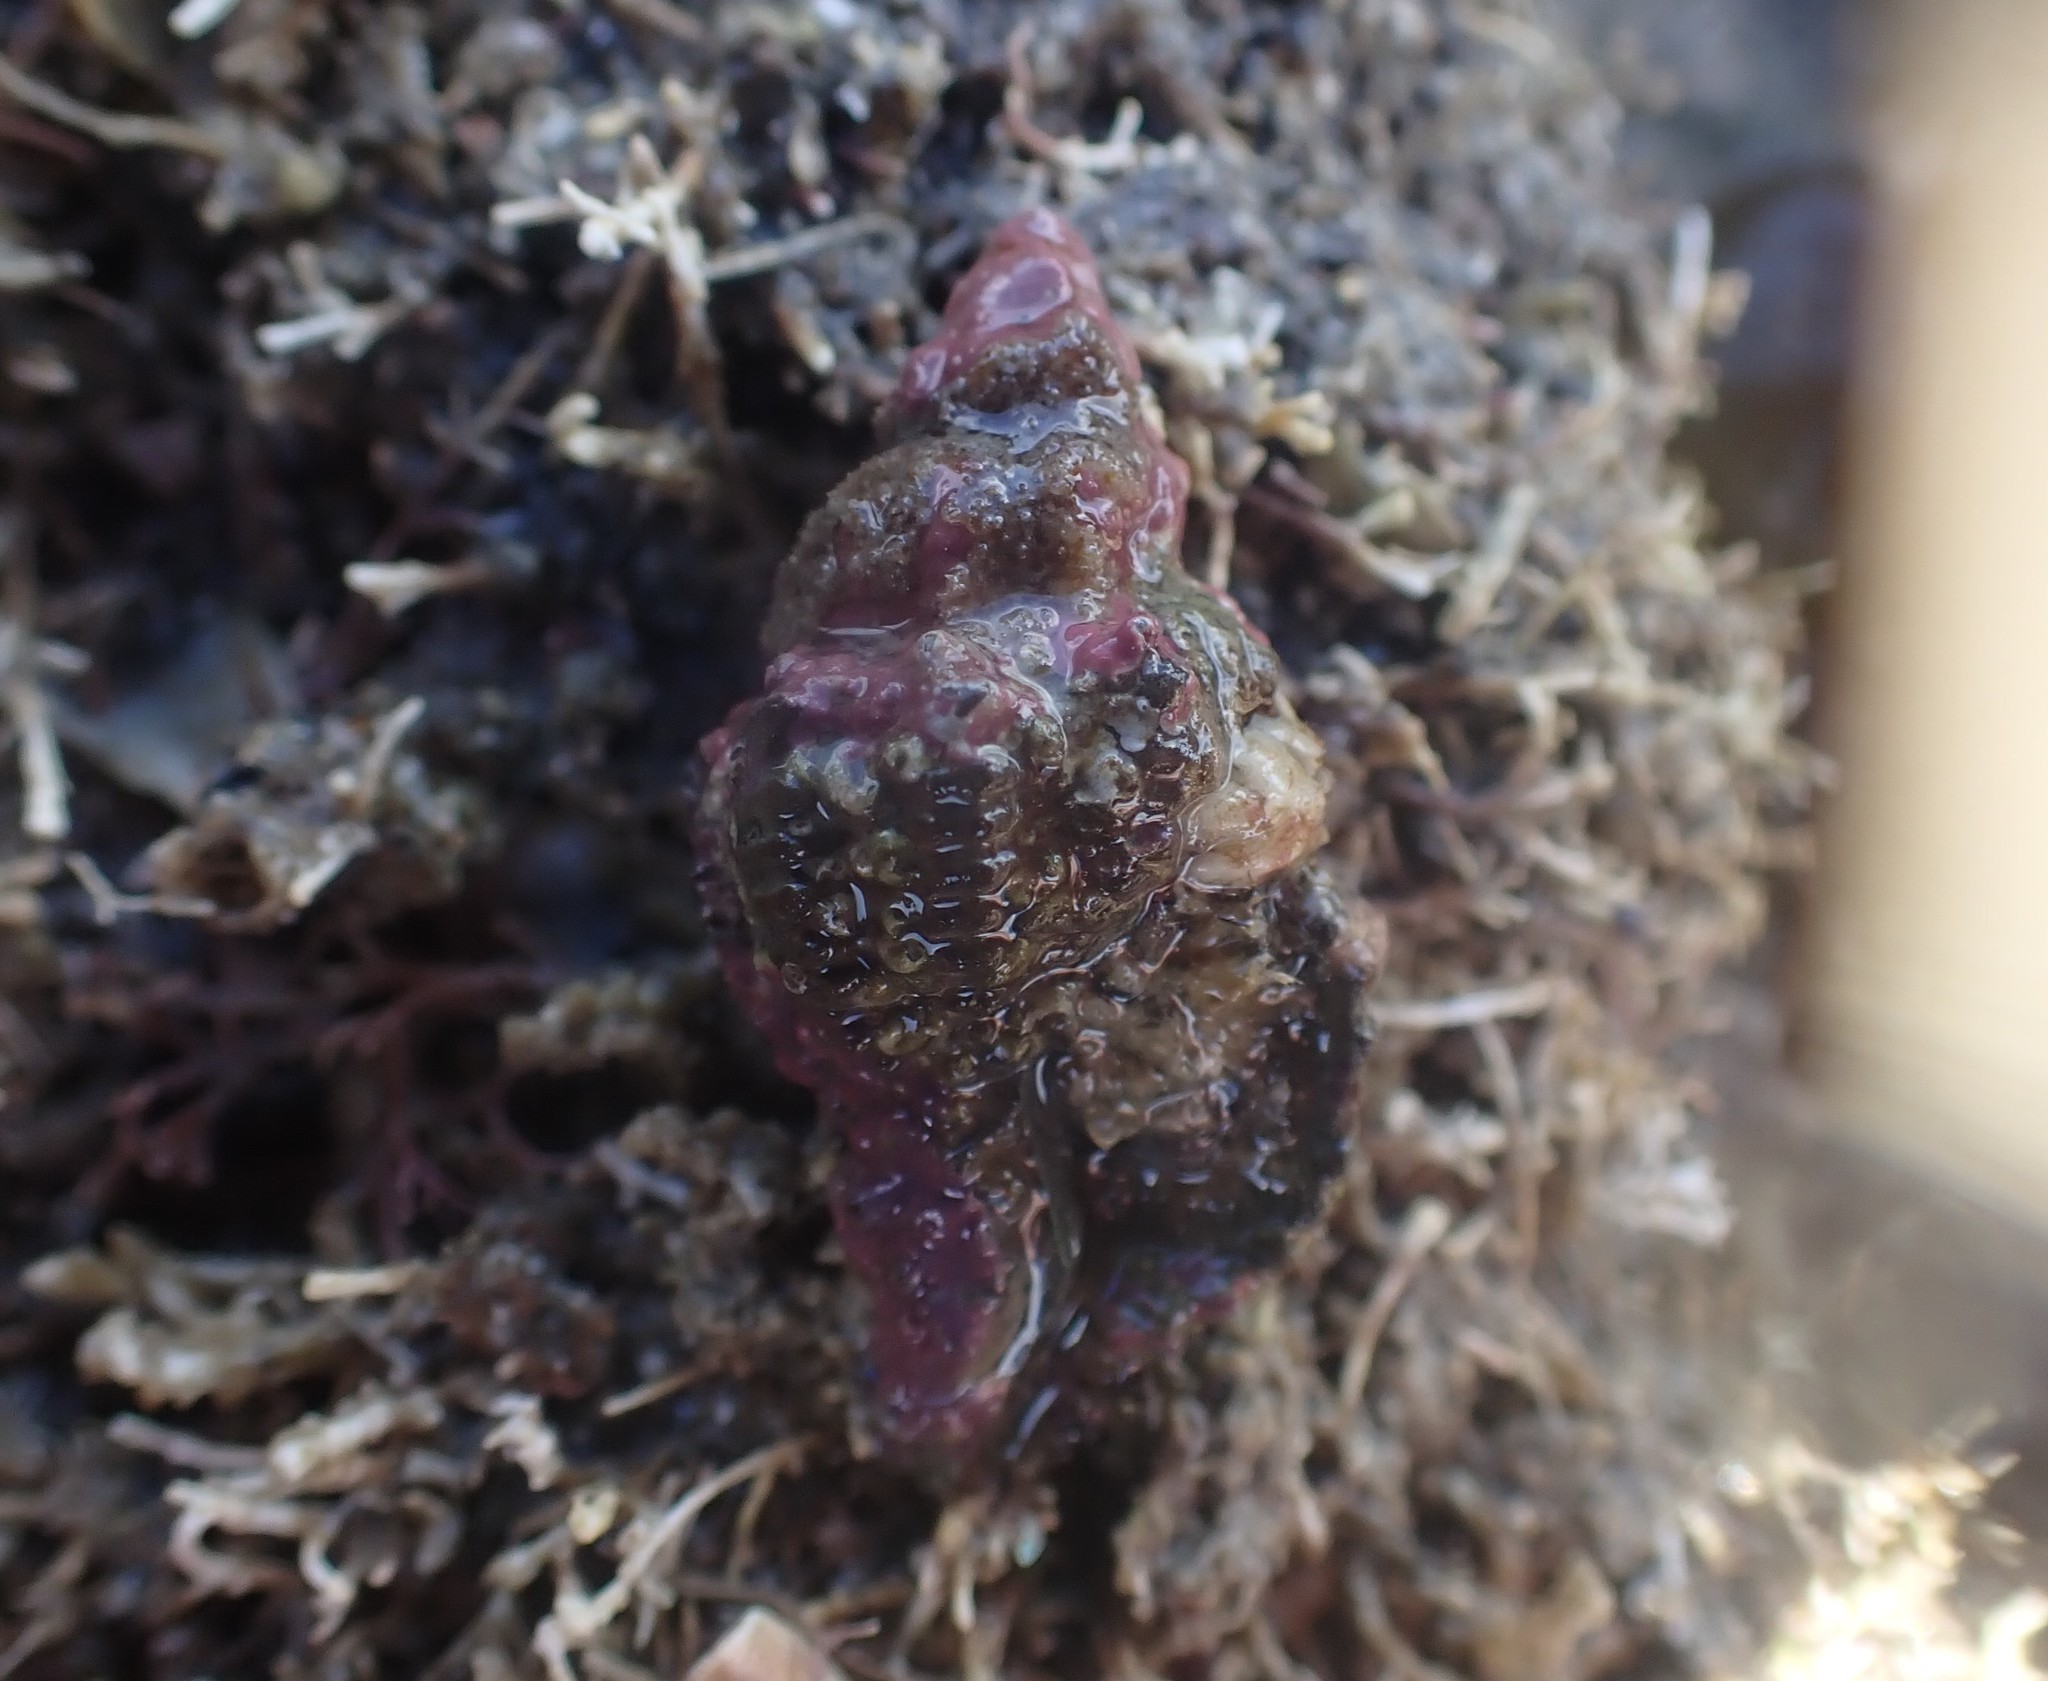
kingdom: Animalia
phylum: Mollusca
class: Gastropoda
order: Neogastropoda
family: Muricidae
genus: Murexsul
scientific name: Murexsul octogonus
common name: Octagon murex
